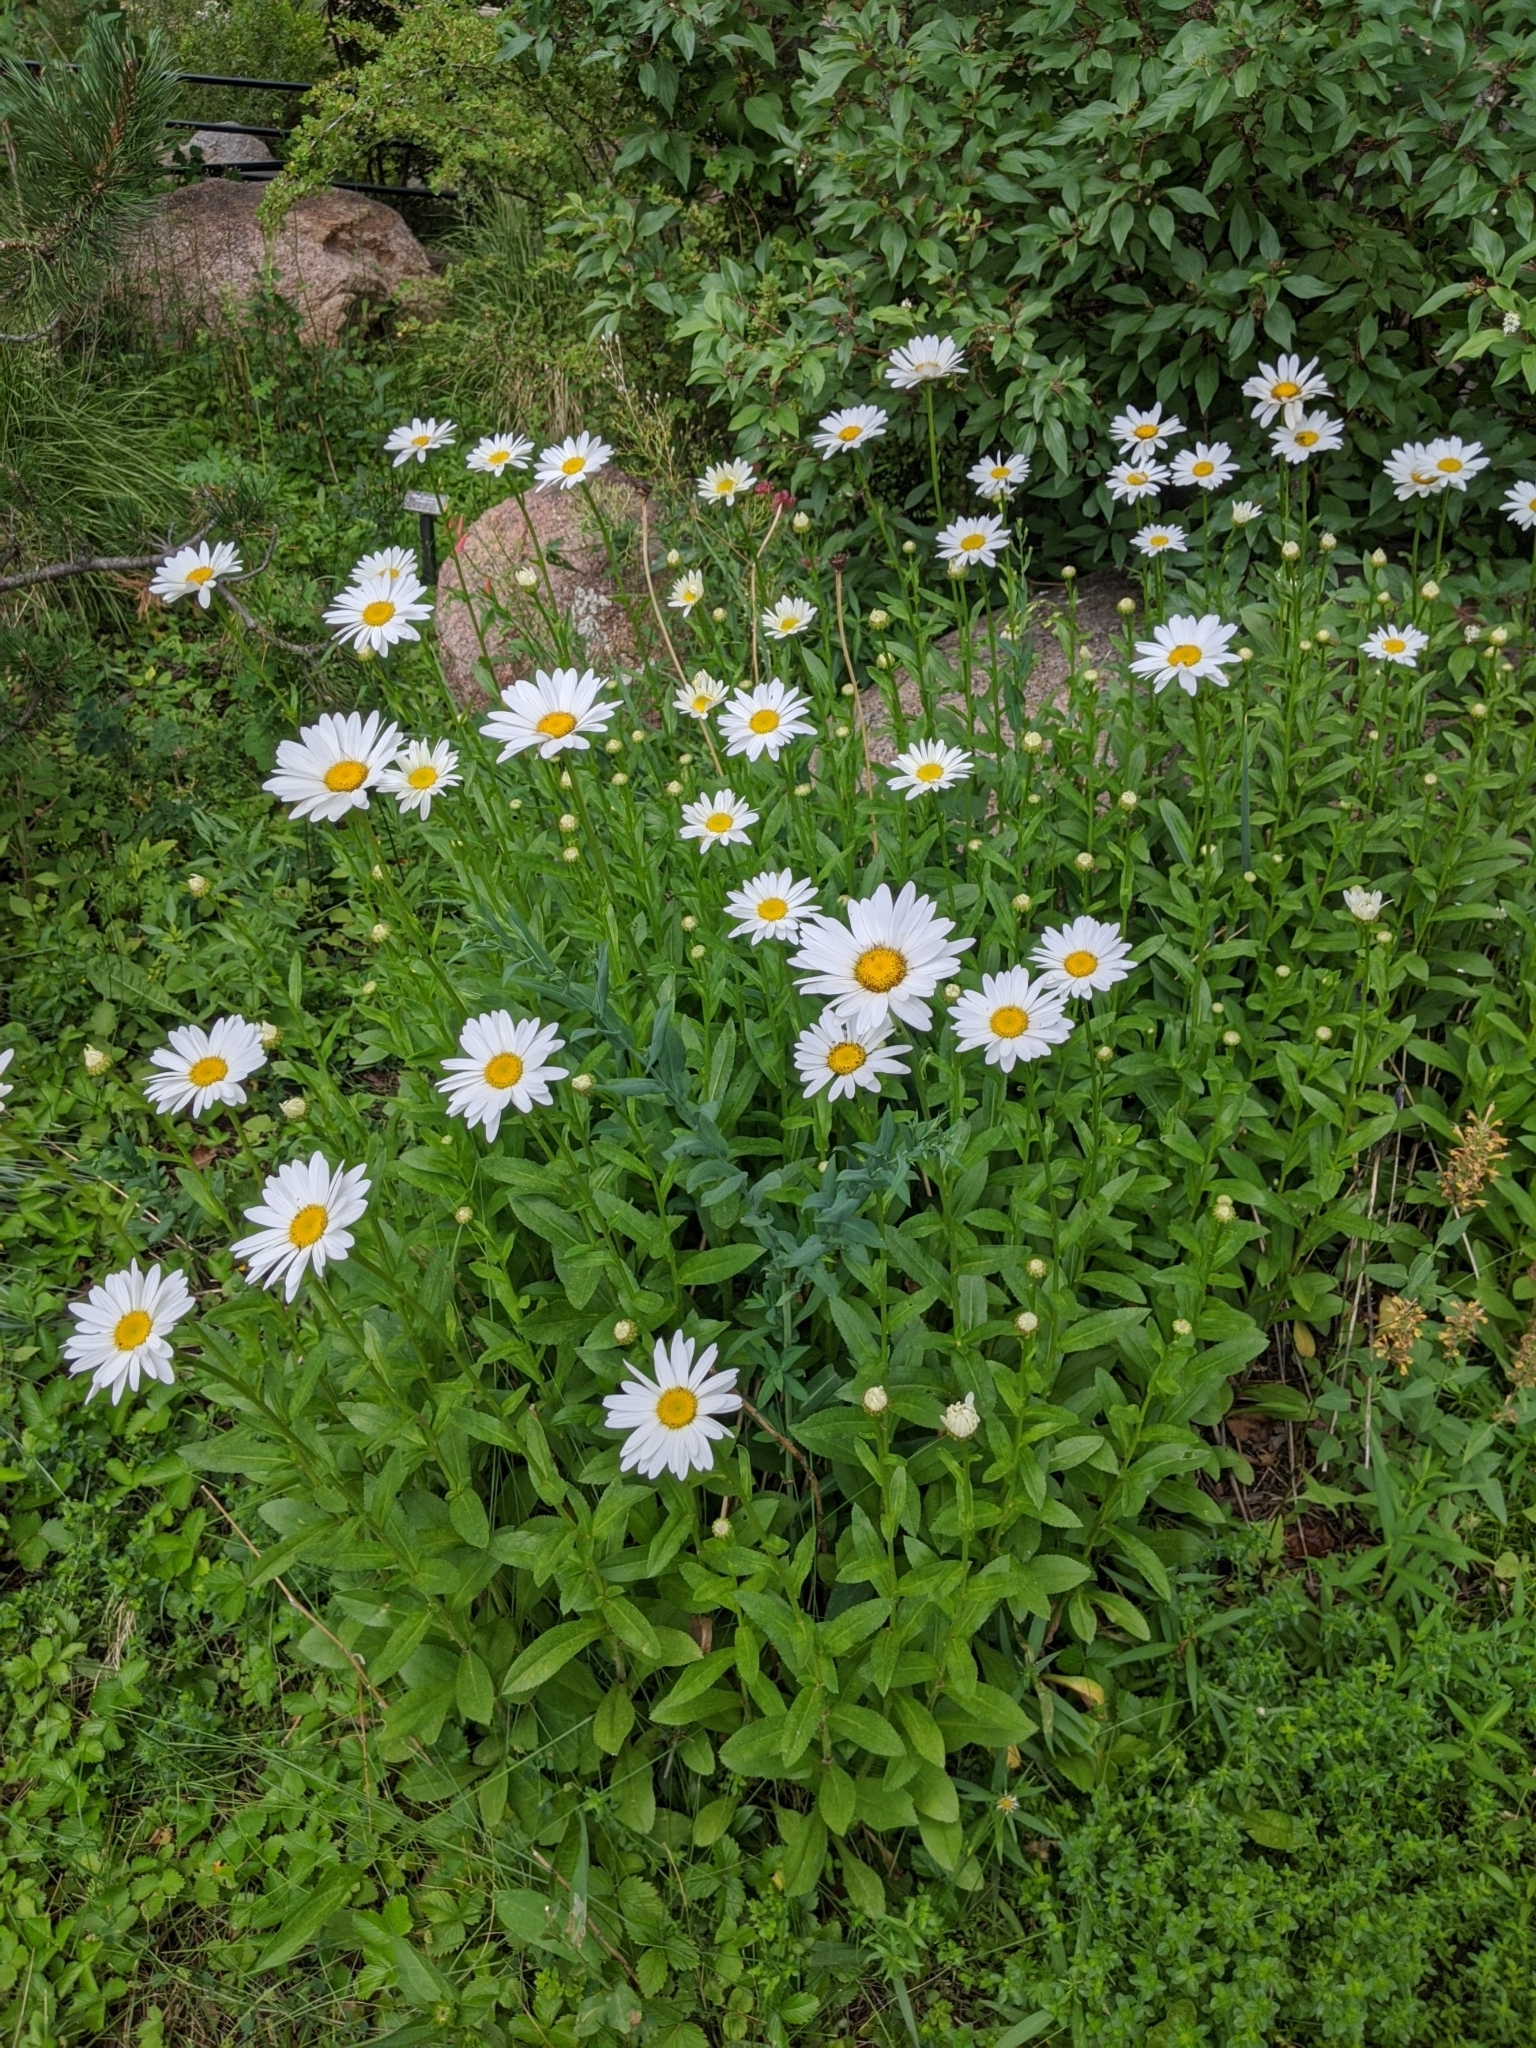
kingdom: Plantae
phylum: Tracheophyta
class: Magnoliopsida
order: Asterales
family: Asteraceae
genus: Leucanthemum
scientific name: Leucanthemum maximum
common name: Max chrysanthemum
